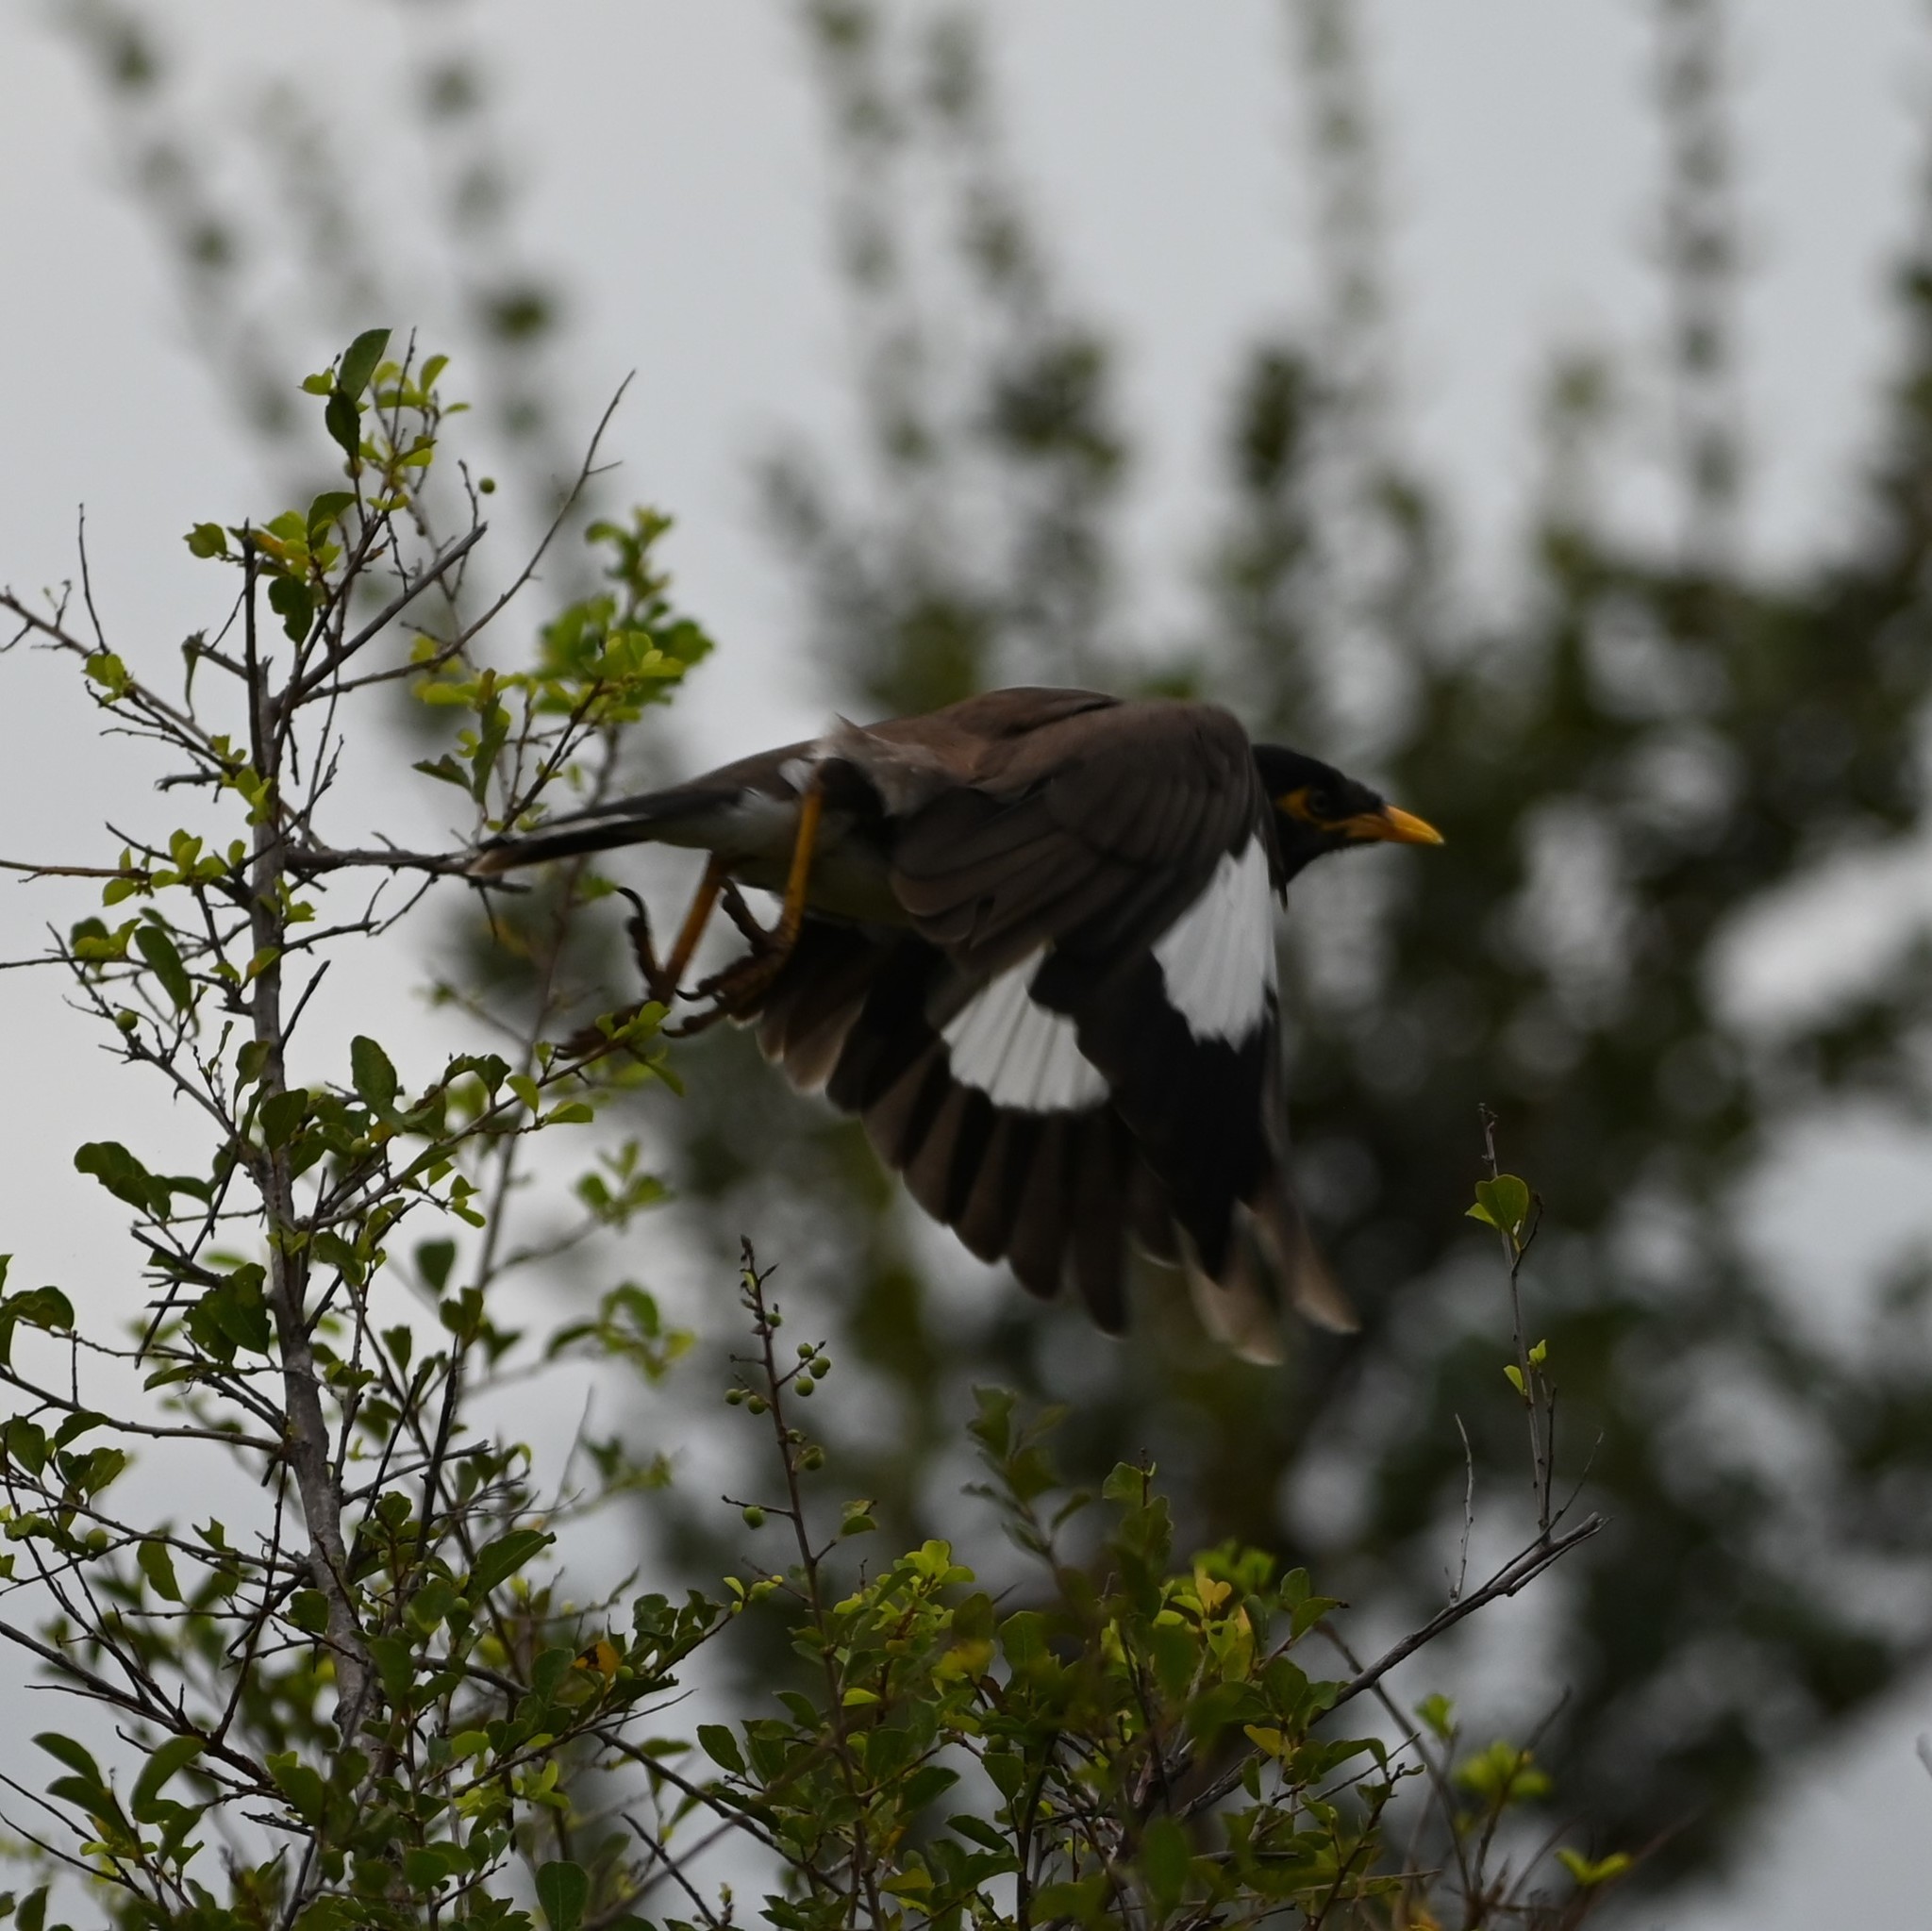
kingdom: Animalia
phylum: Chordata
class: Aves
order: Passeriformes
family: Sturnidae
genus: Acridotheres
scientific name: Acridotheres tristis
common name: Common myna
